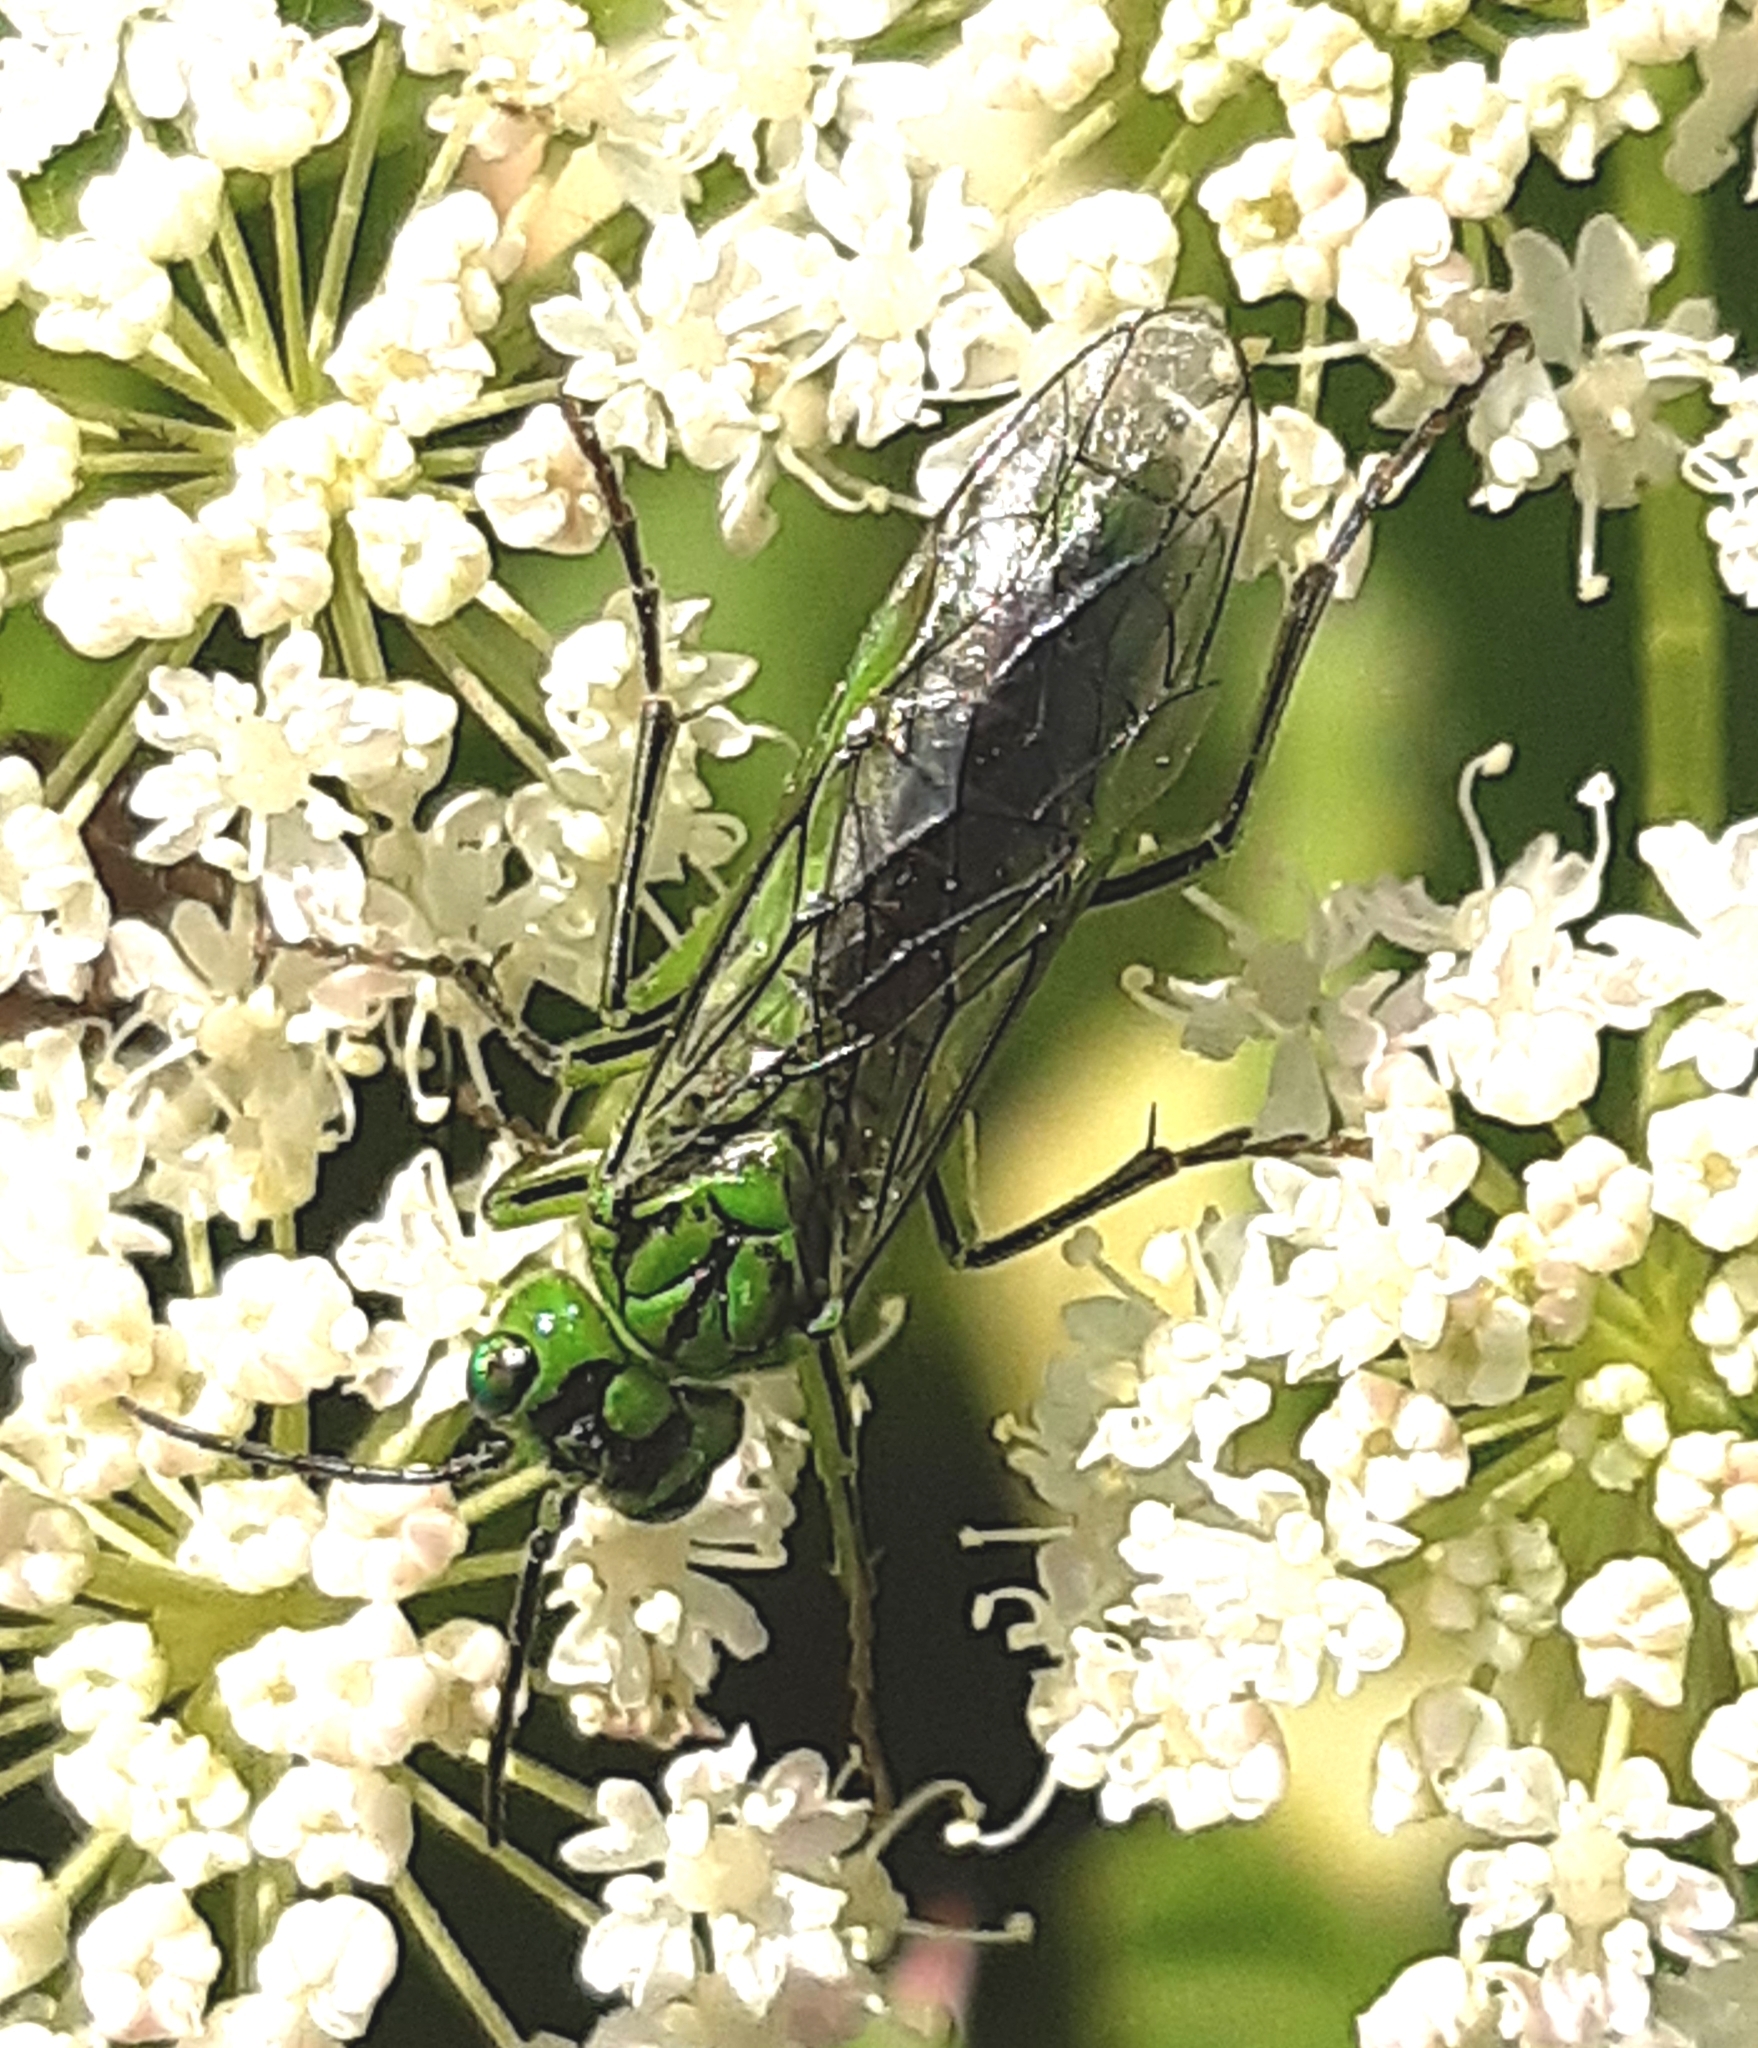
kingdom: Animalia
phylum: Arthropoda
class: Insecta
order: Hymenoptera
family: Tenthredinidae
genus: Tenthredo
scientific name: Tenthredo olivacea
